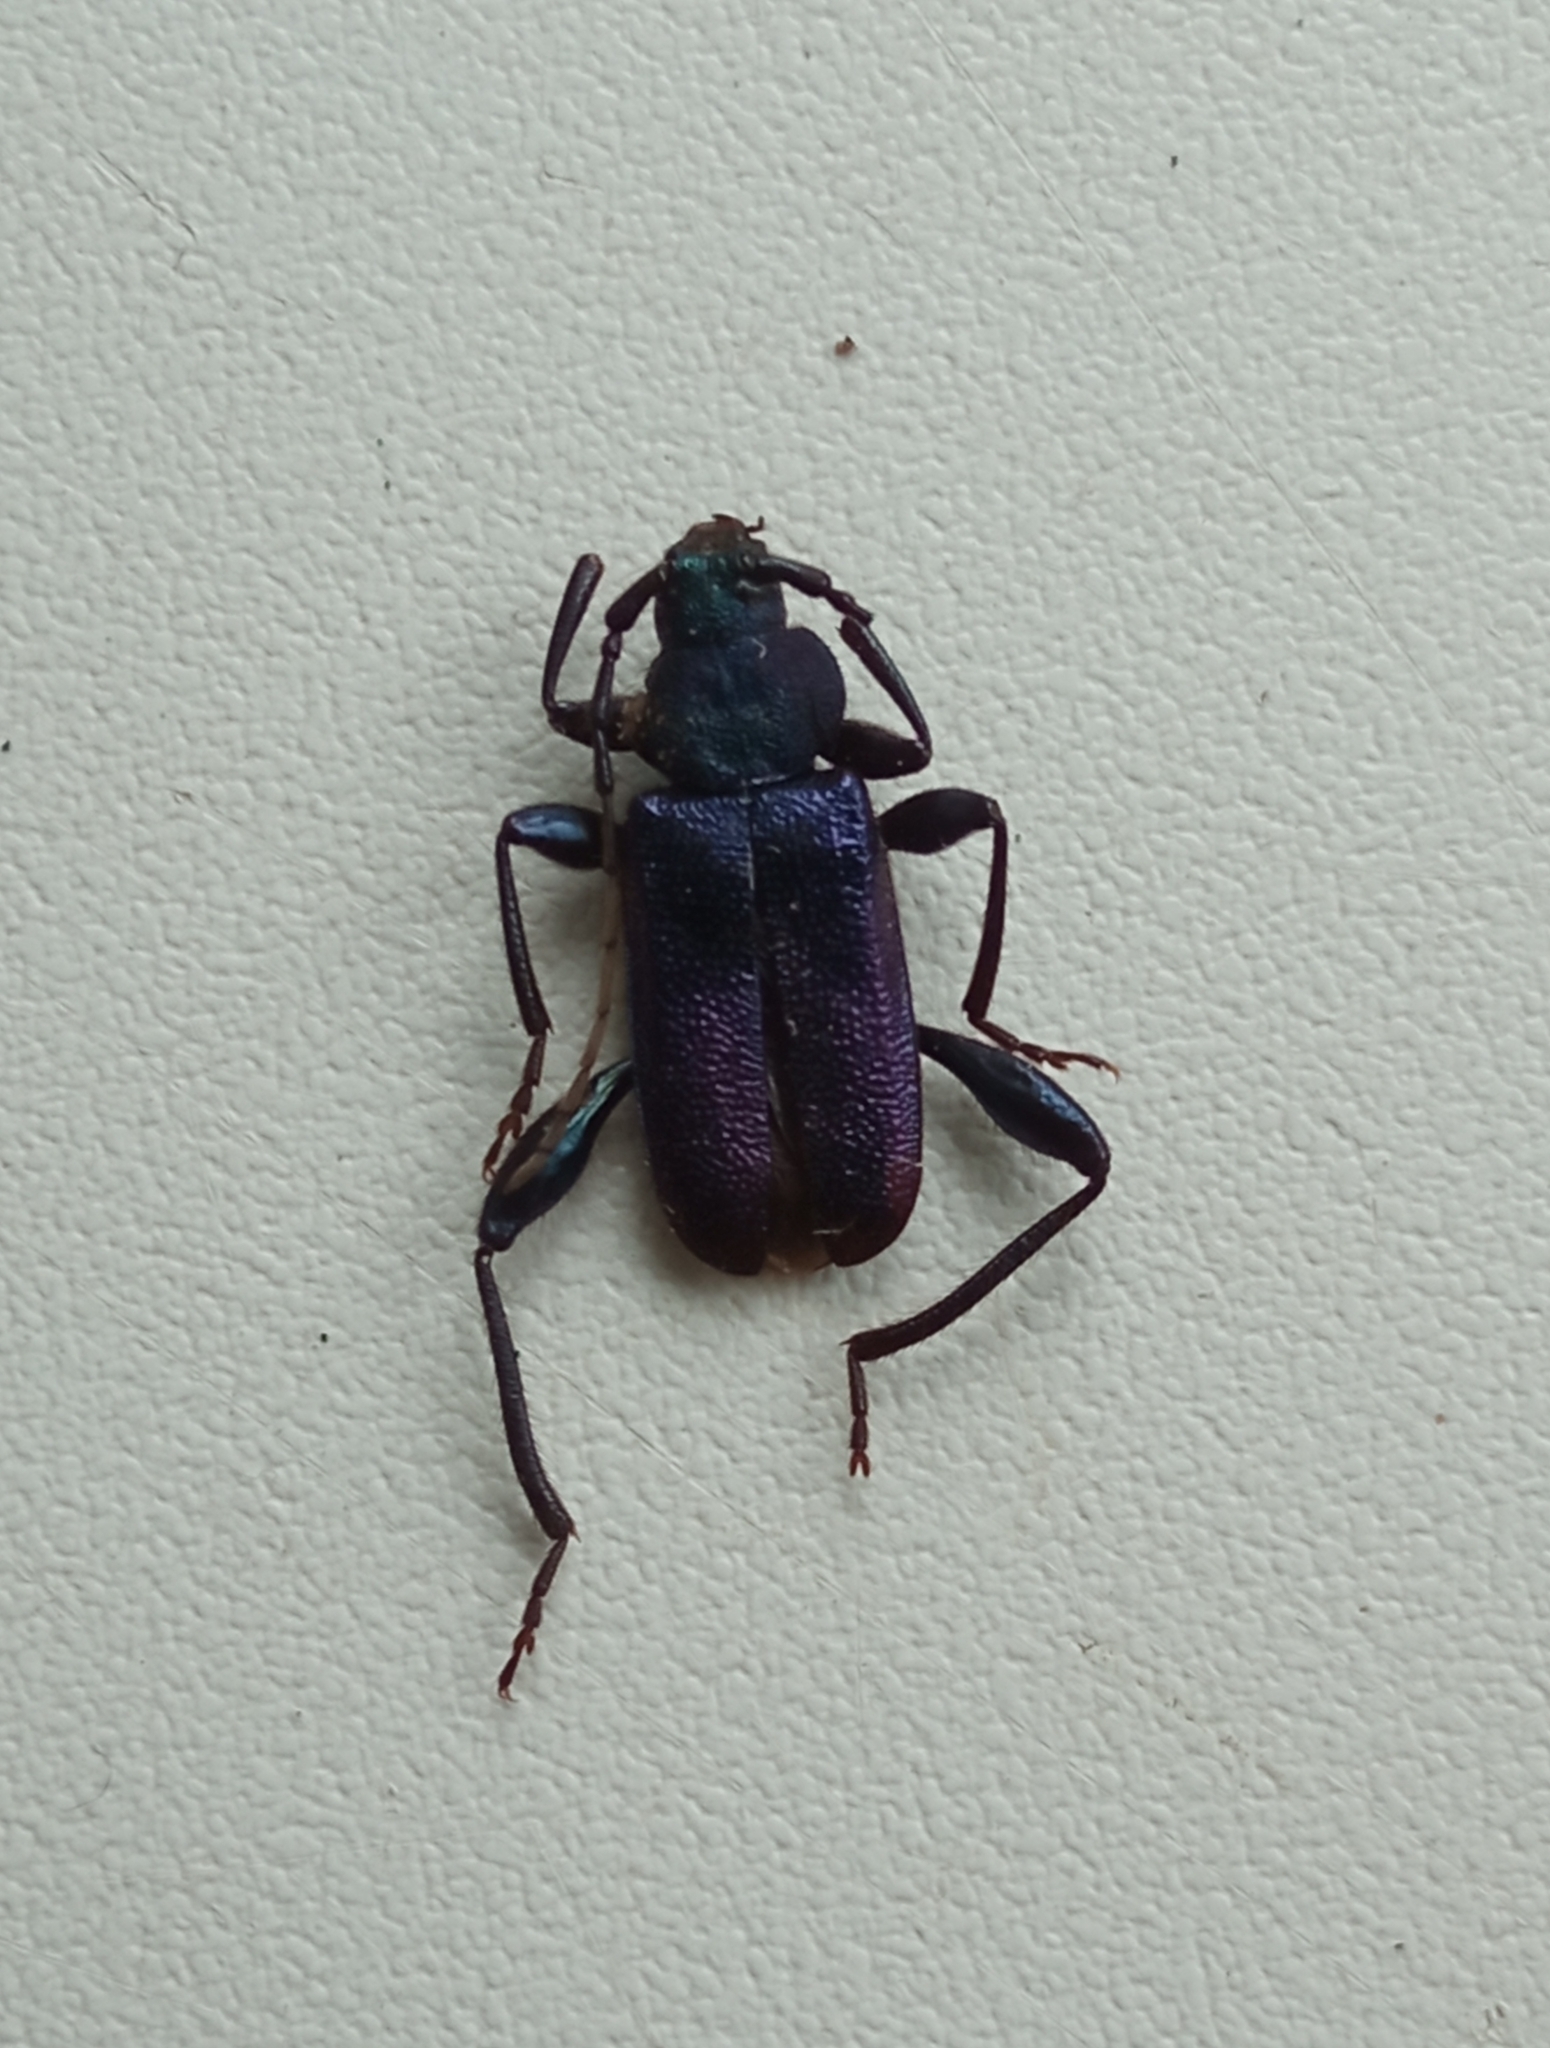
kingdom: Animalia
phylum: Arthropoda
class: Insecta
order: Coleoptera
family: Cerambycidae
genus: Callidium
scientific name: Callidium violaceum
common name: Violet tanbark beetle
